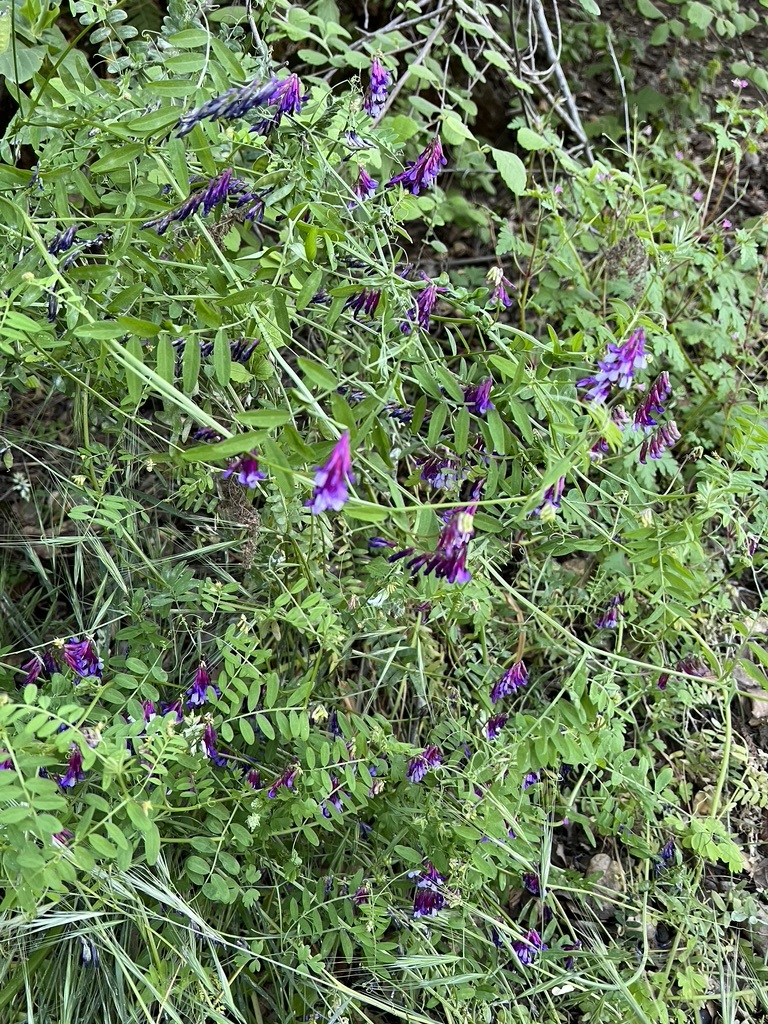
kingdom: Plantae
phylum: Tracheophyta
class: Magnoliopsida
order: Fabales
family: Fabaceae
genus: Vicia
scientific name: Vicia villosa
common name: Fodder vetch
